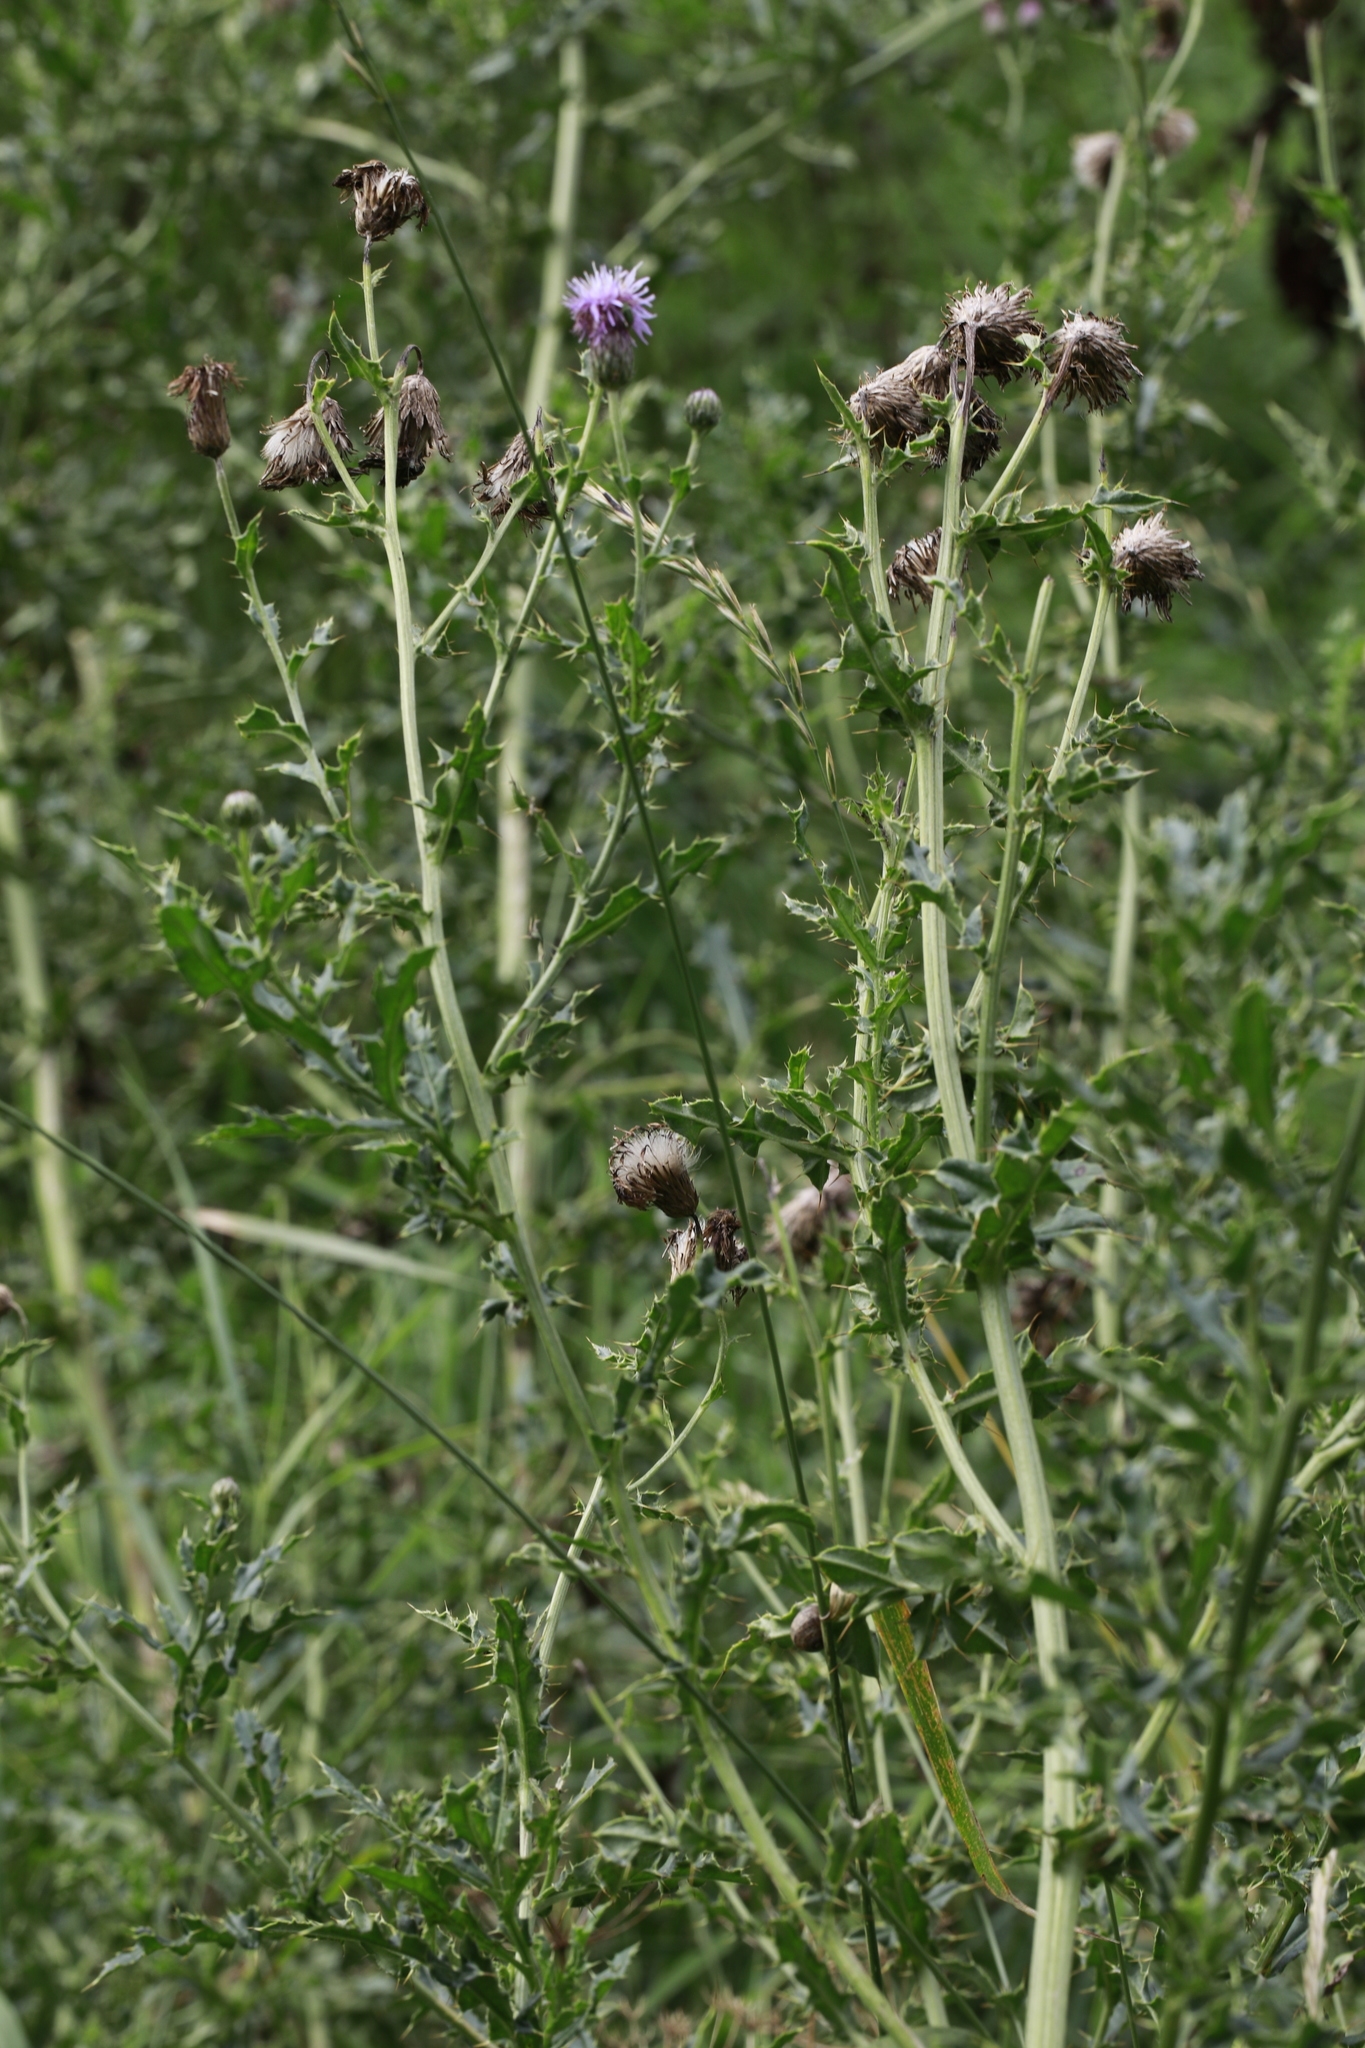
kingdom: Plantae
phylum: Tracheophyta
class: Magnoliopsida
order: Asterales
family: Asteraceae
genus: Cirsium
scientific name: Cirsium arvense
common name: Creeping thistle
